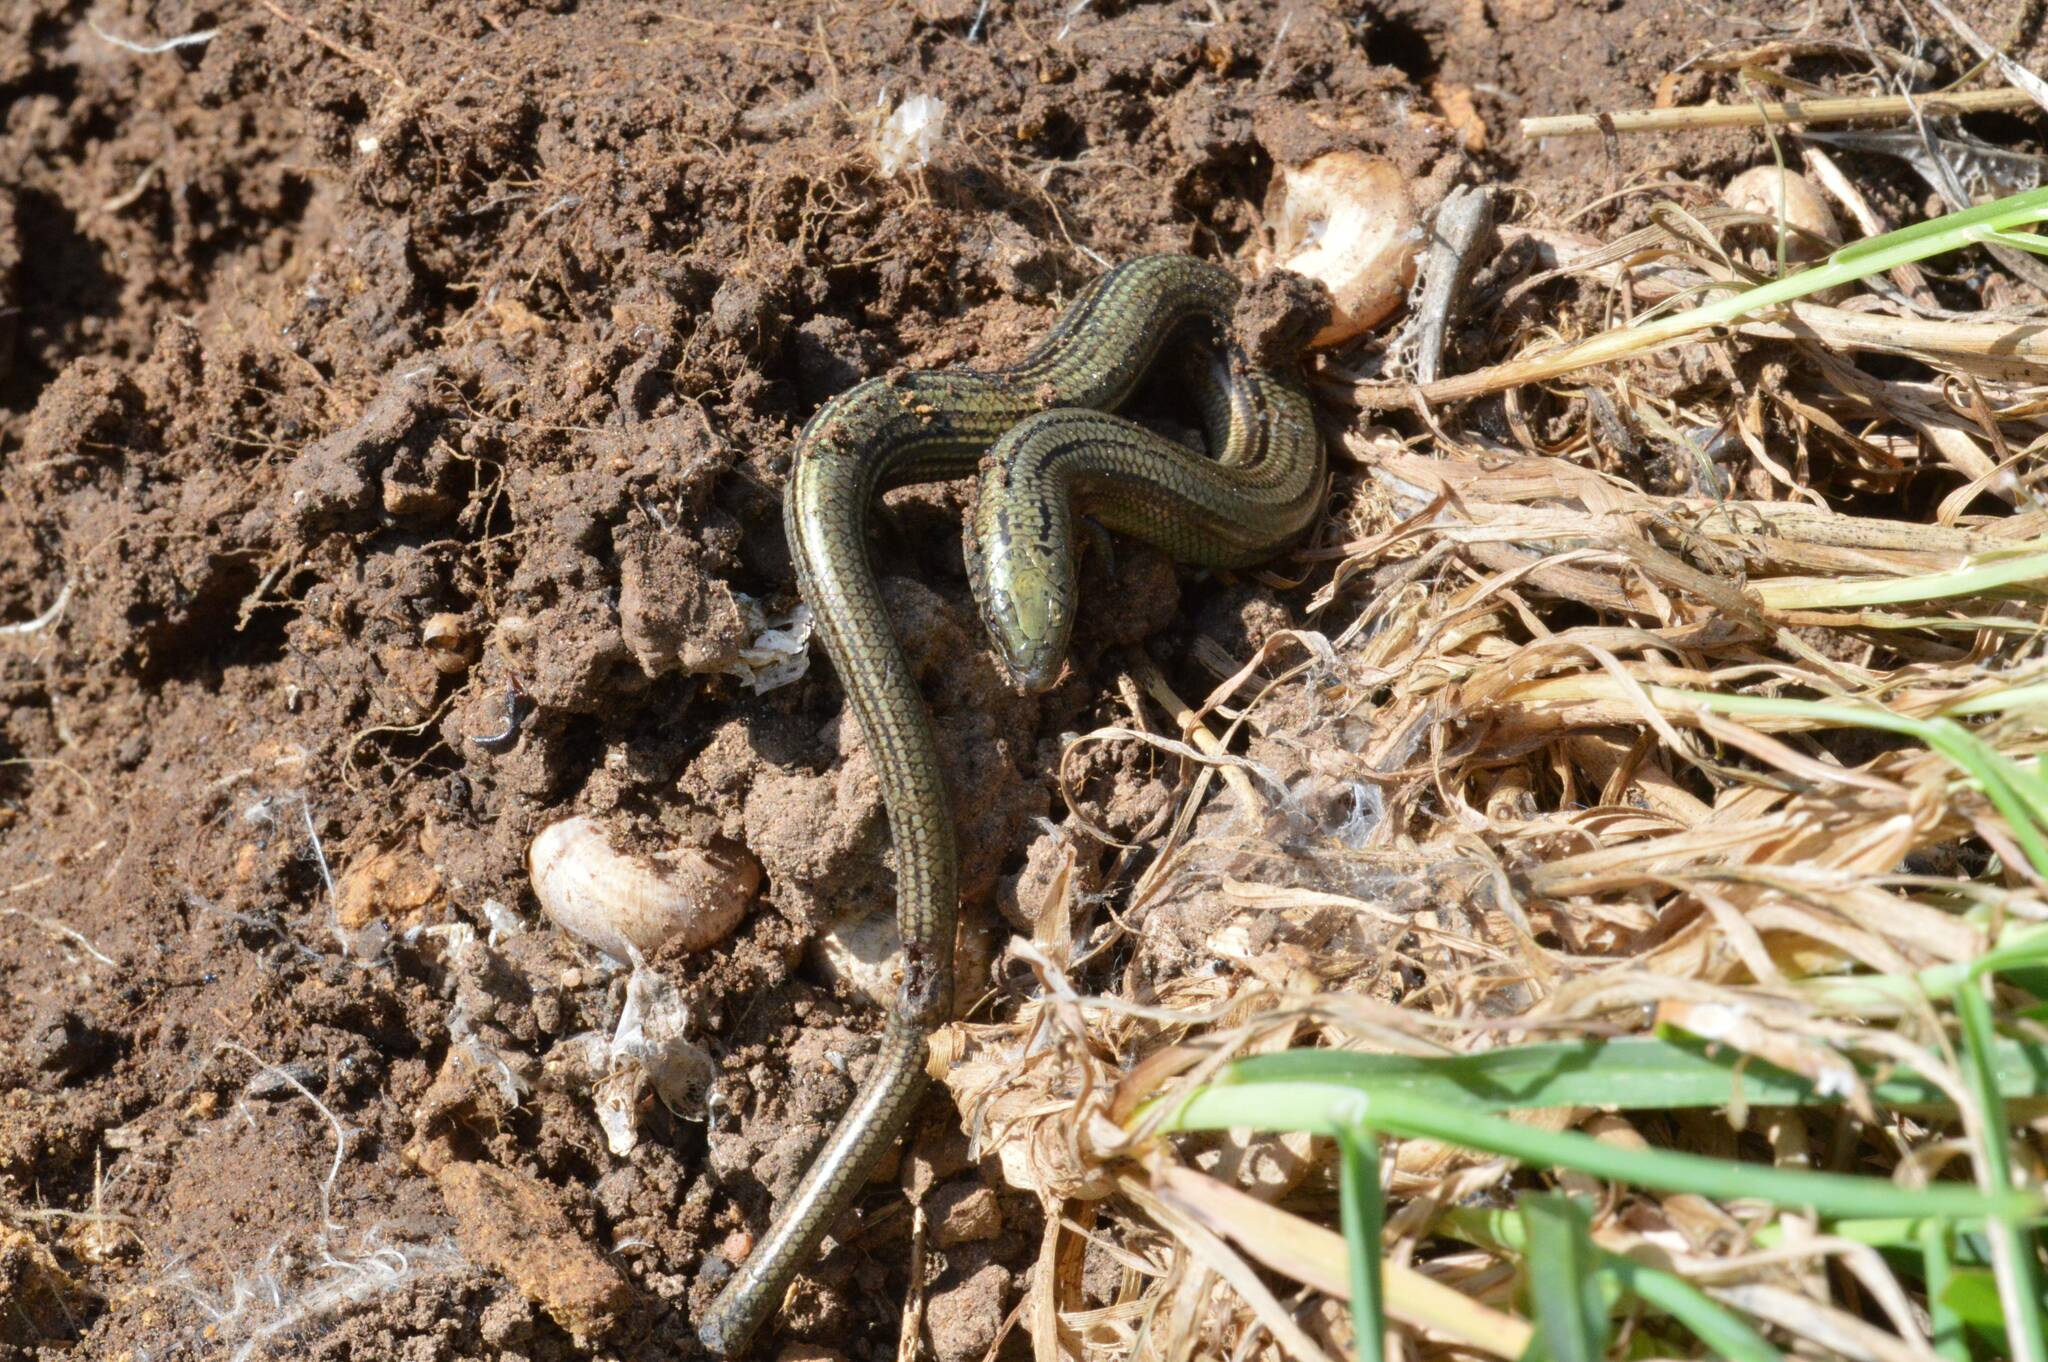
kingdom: Animalia
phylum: Chordata
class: Squamata
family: Scincidae
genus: Chalcides
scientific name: Chalcides mertensi
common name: Algerian three-toed skink
